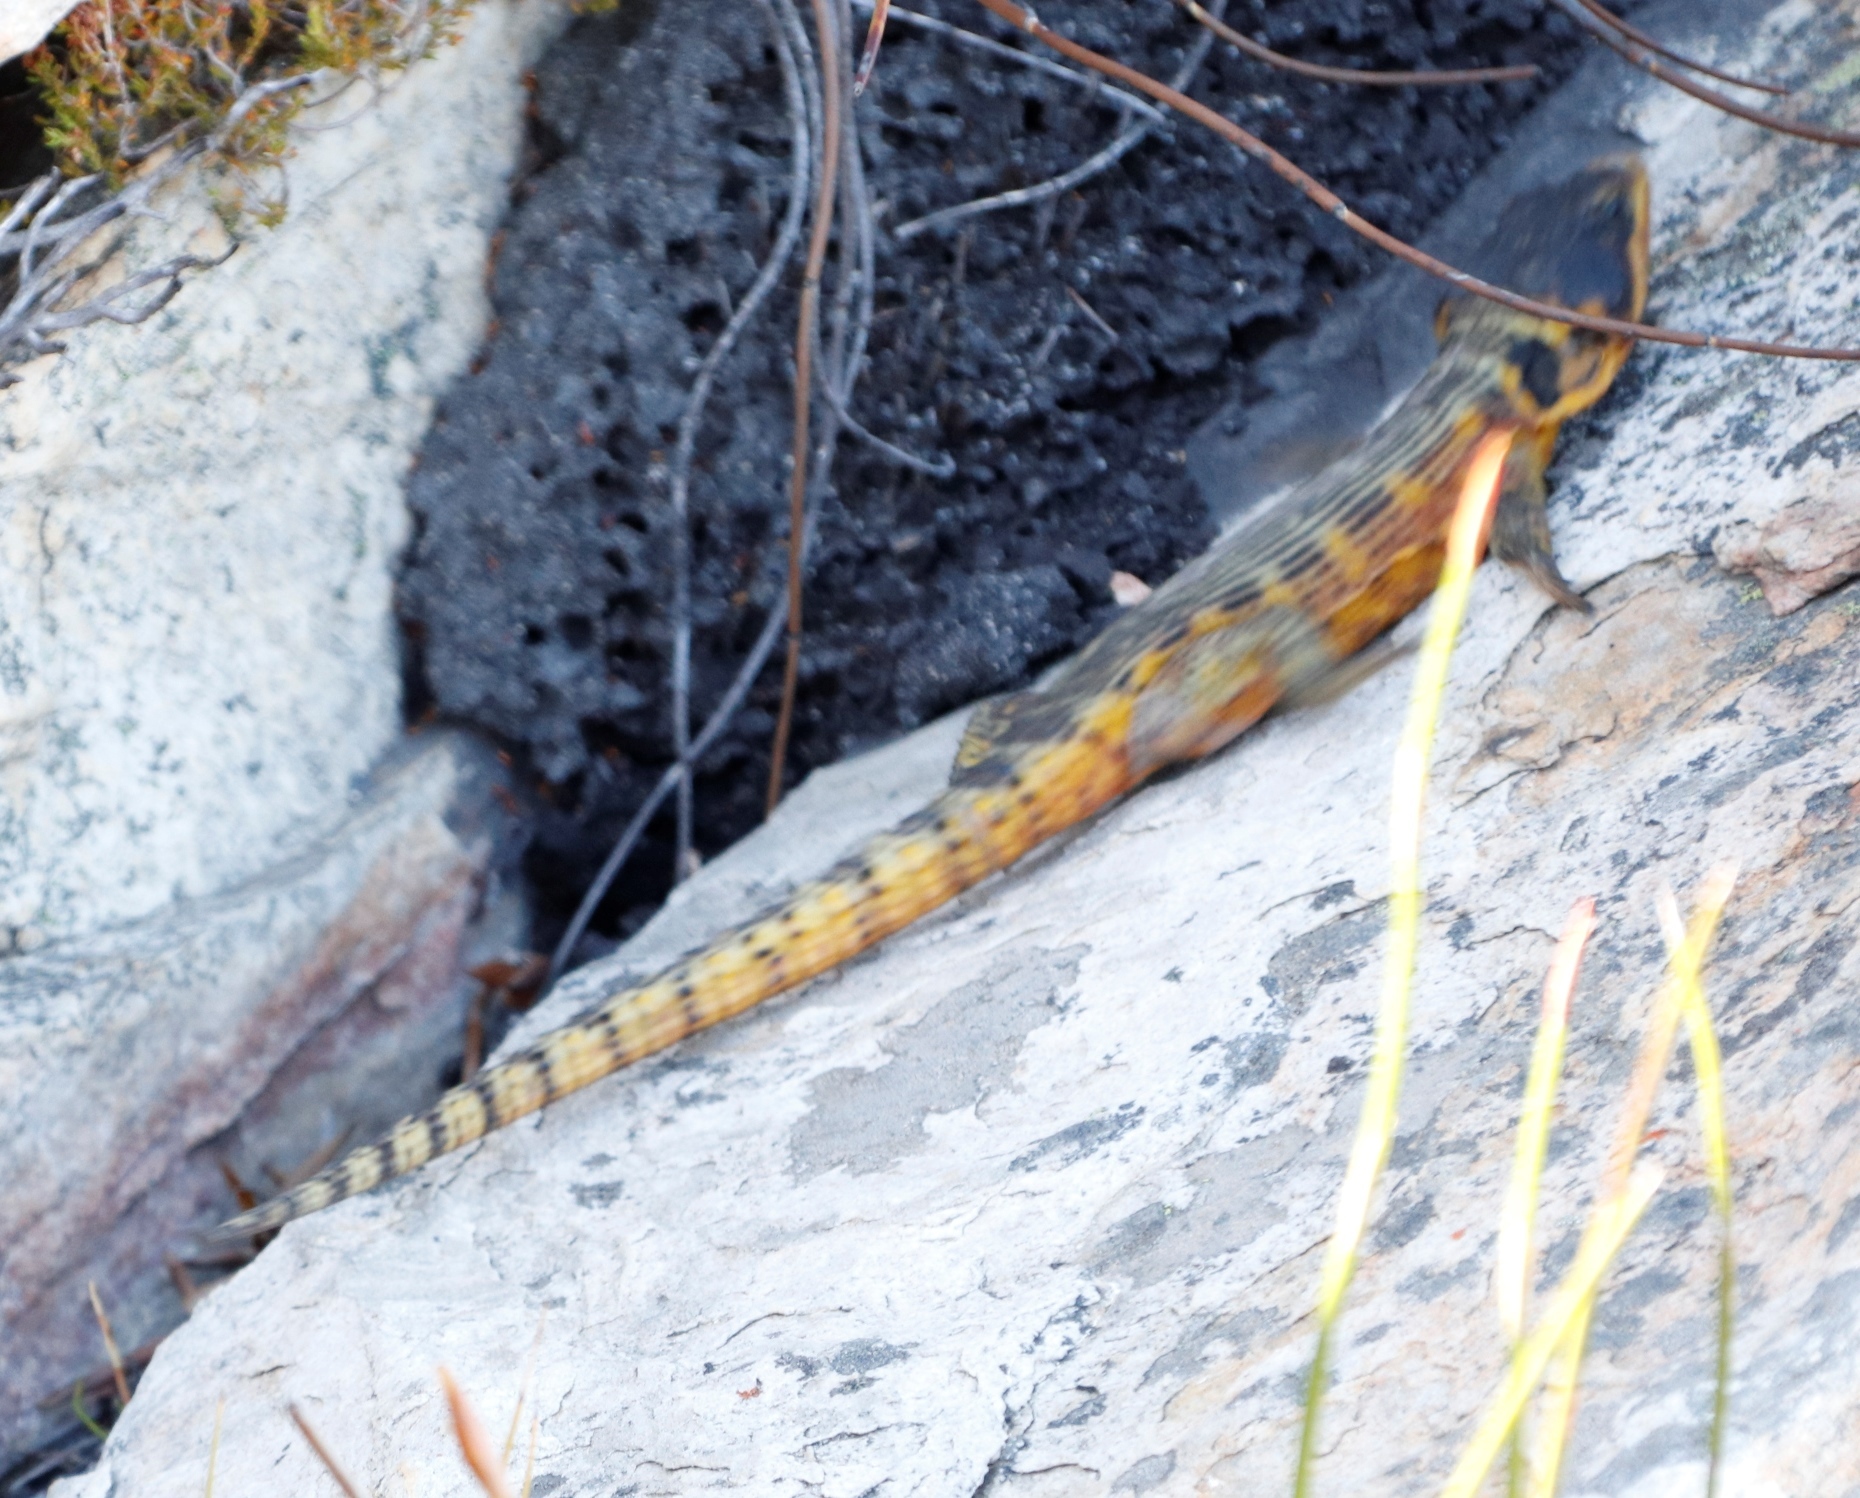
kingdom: Animalia
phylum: Chordata
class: Squamata
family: Cordylidae
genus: Pseudocordylus
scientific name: Pseudocordylus microlepidotus
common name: Cape crag lizard
